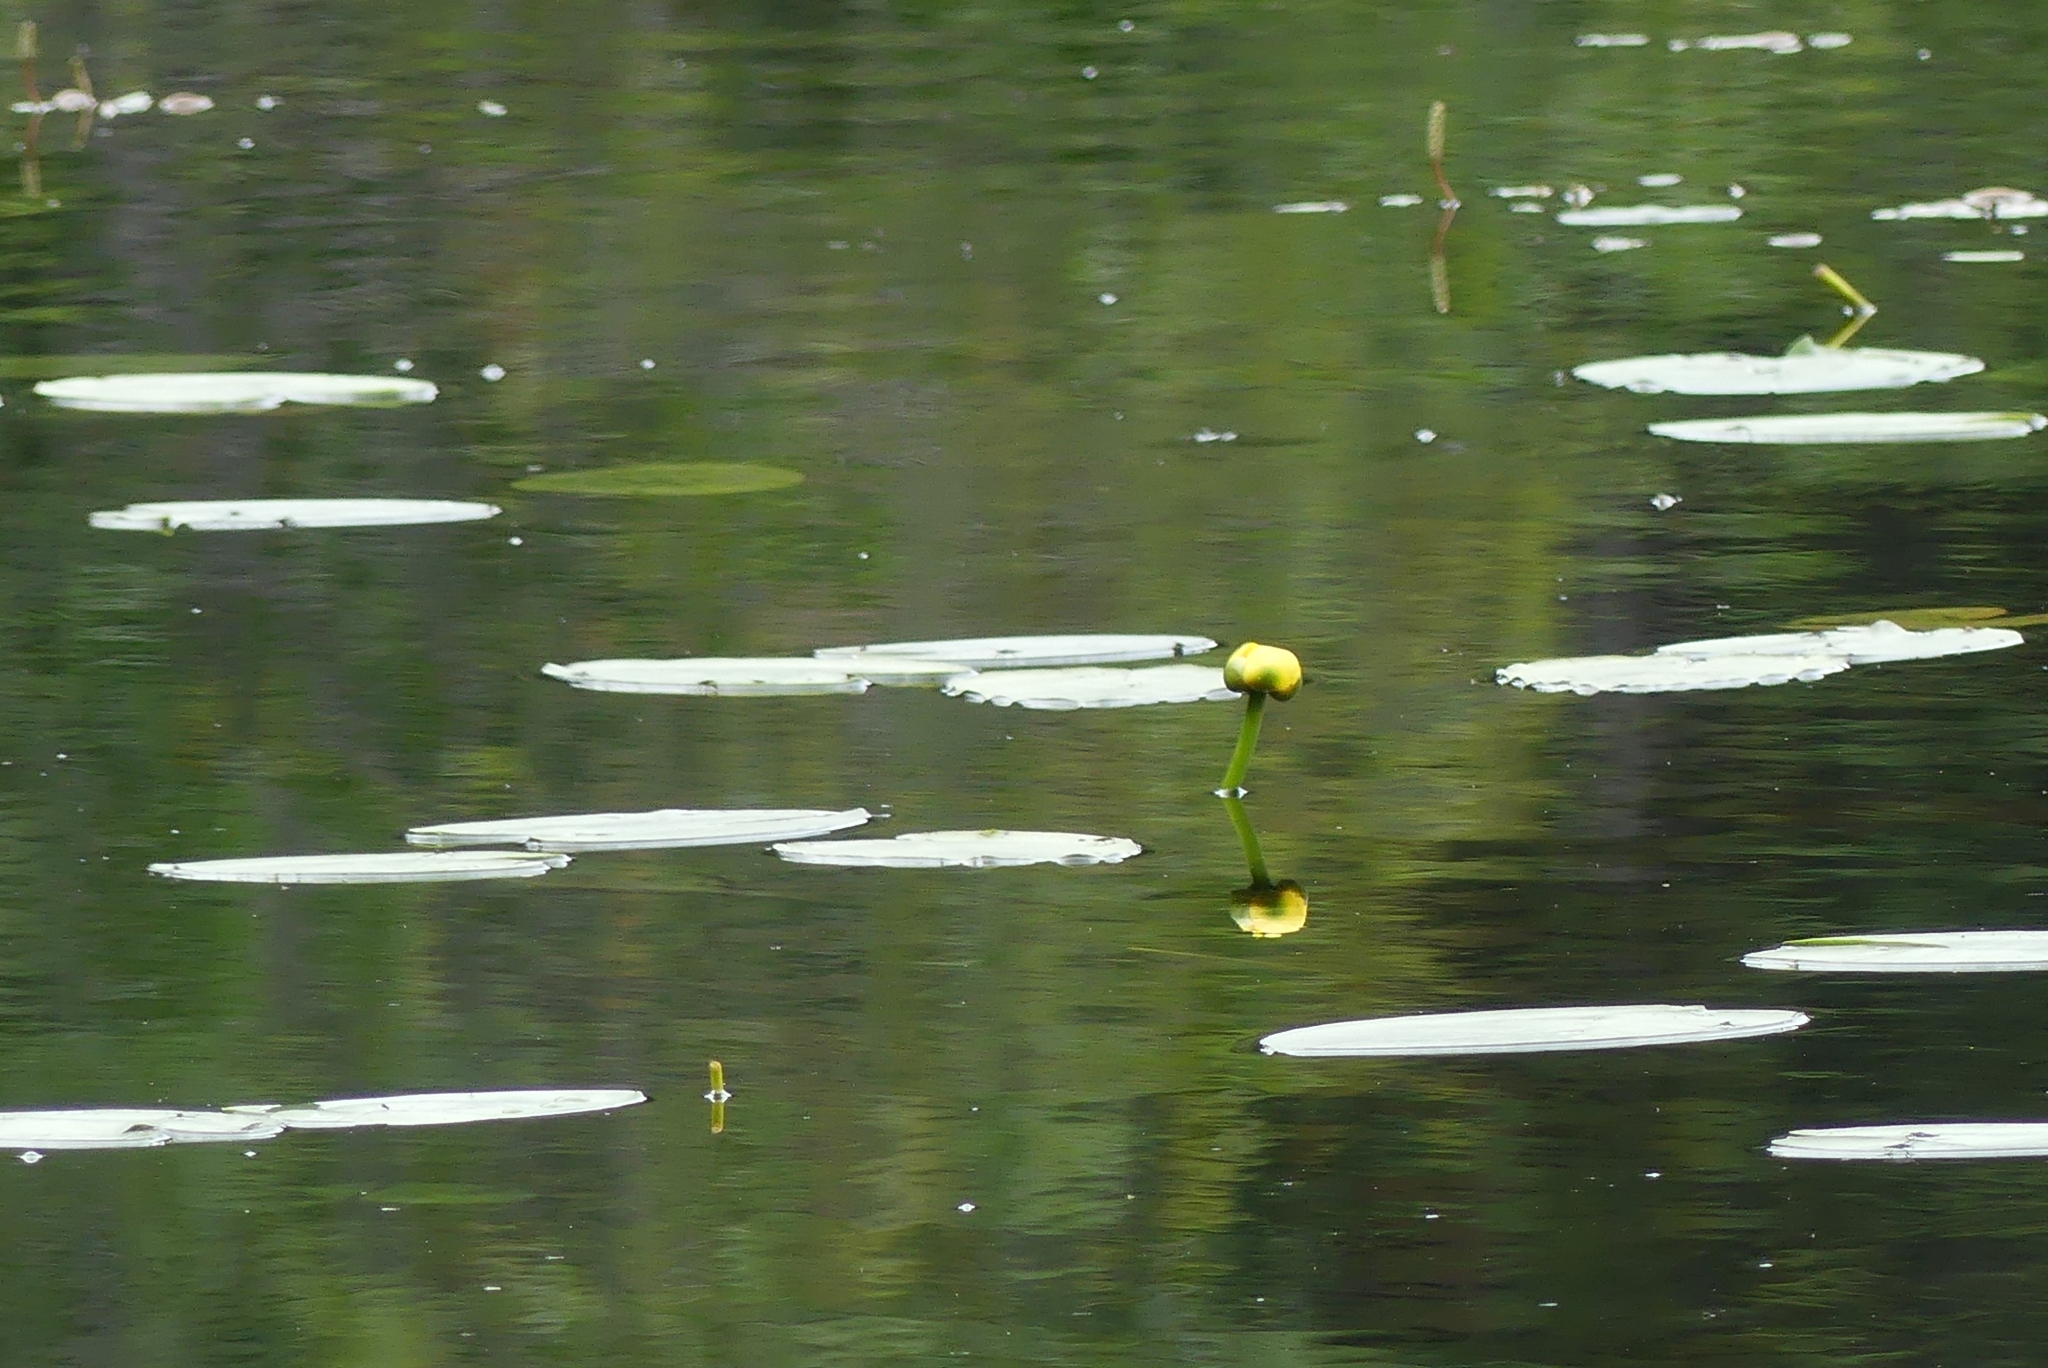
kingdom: Plantae
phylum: Tracheophyta
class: Magnoliopsida
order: Nymphaeales
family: Nymphaeaceae
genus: Nuphar
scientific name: Nuphar
